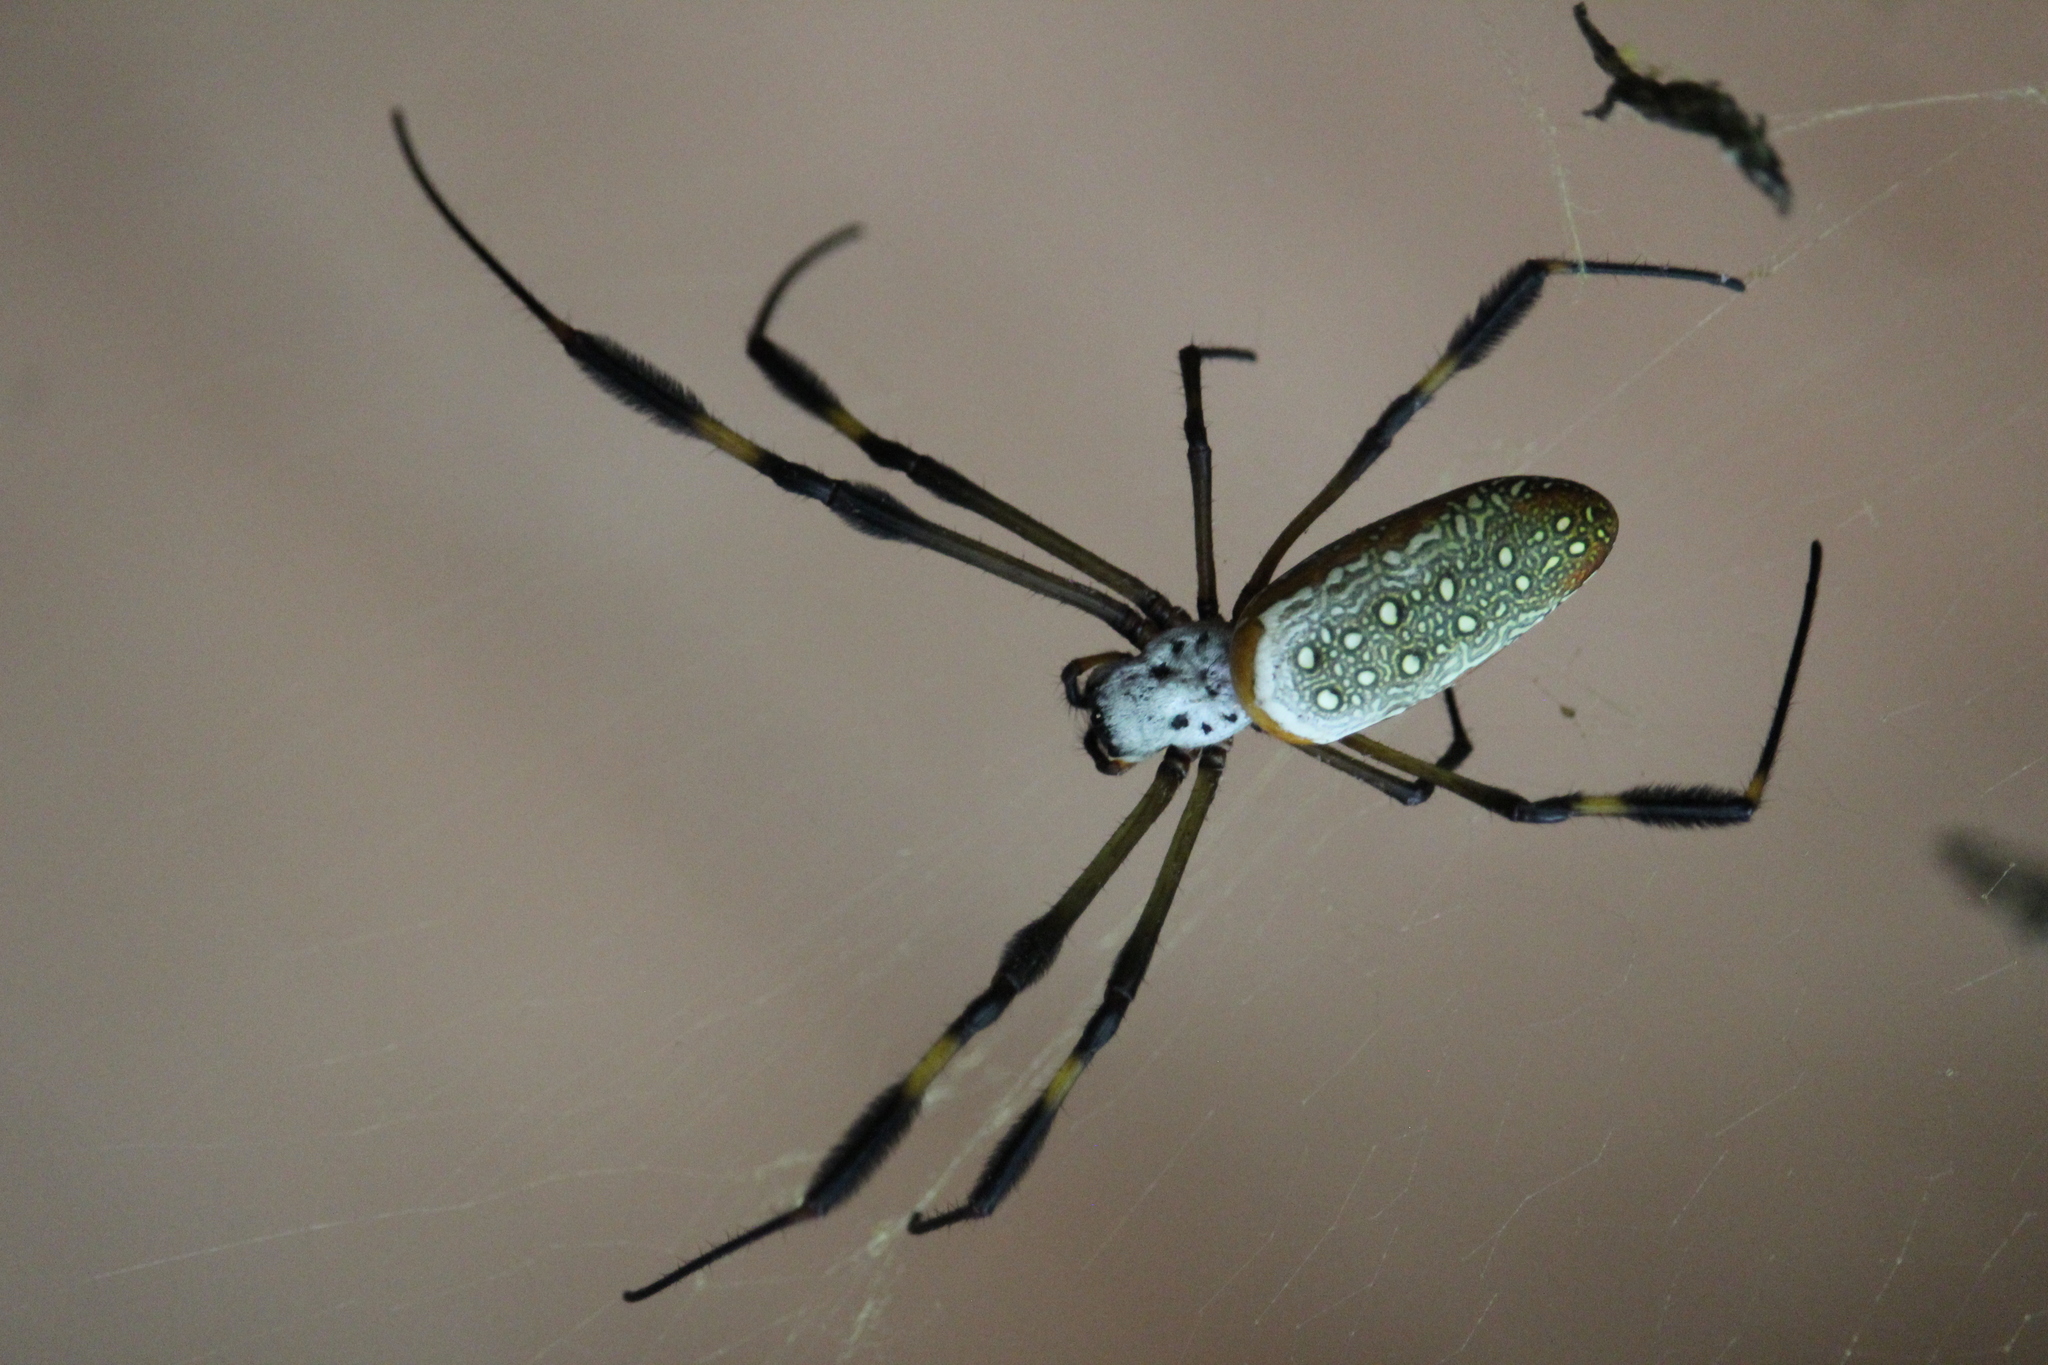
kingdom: Animalia
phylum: Arthropoda
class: Arachnida
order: Araneae
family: Araneidae
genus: Trichonephila
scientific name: Trichonephila clavipes
